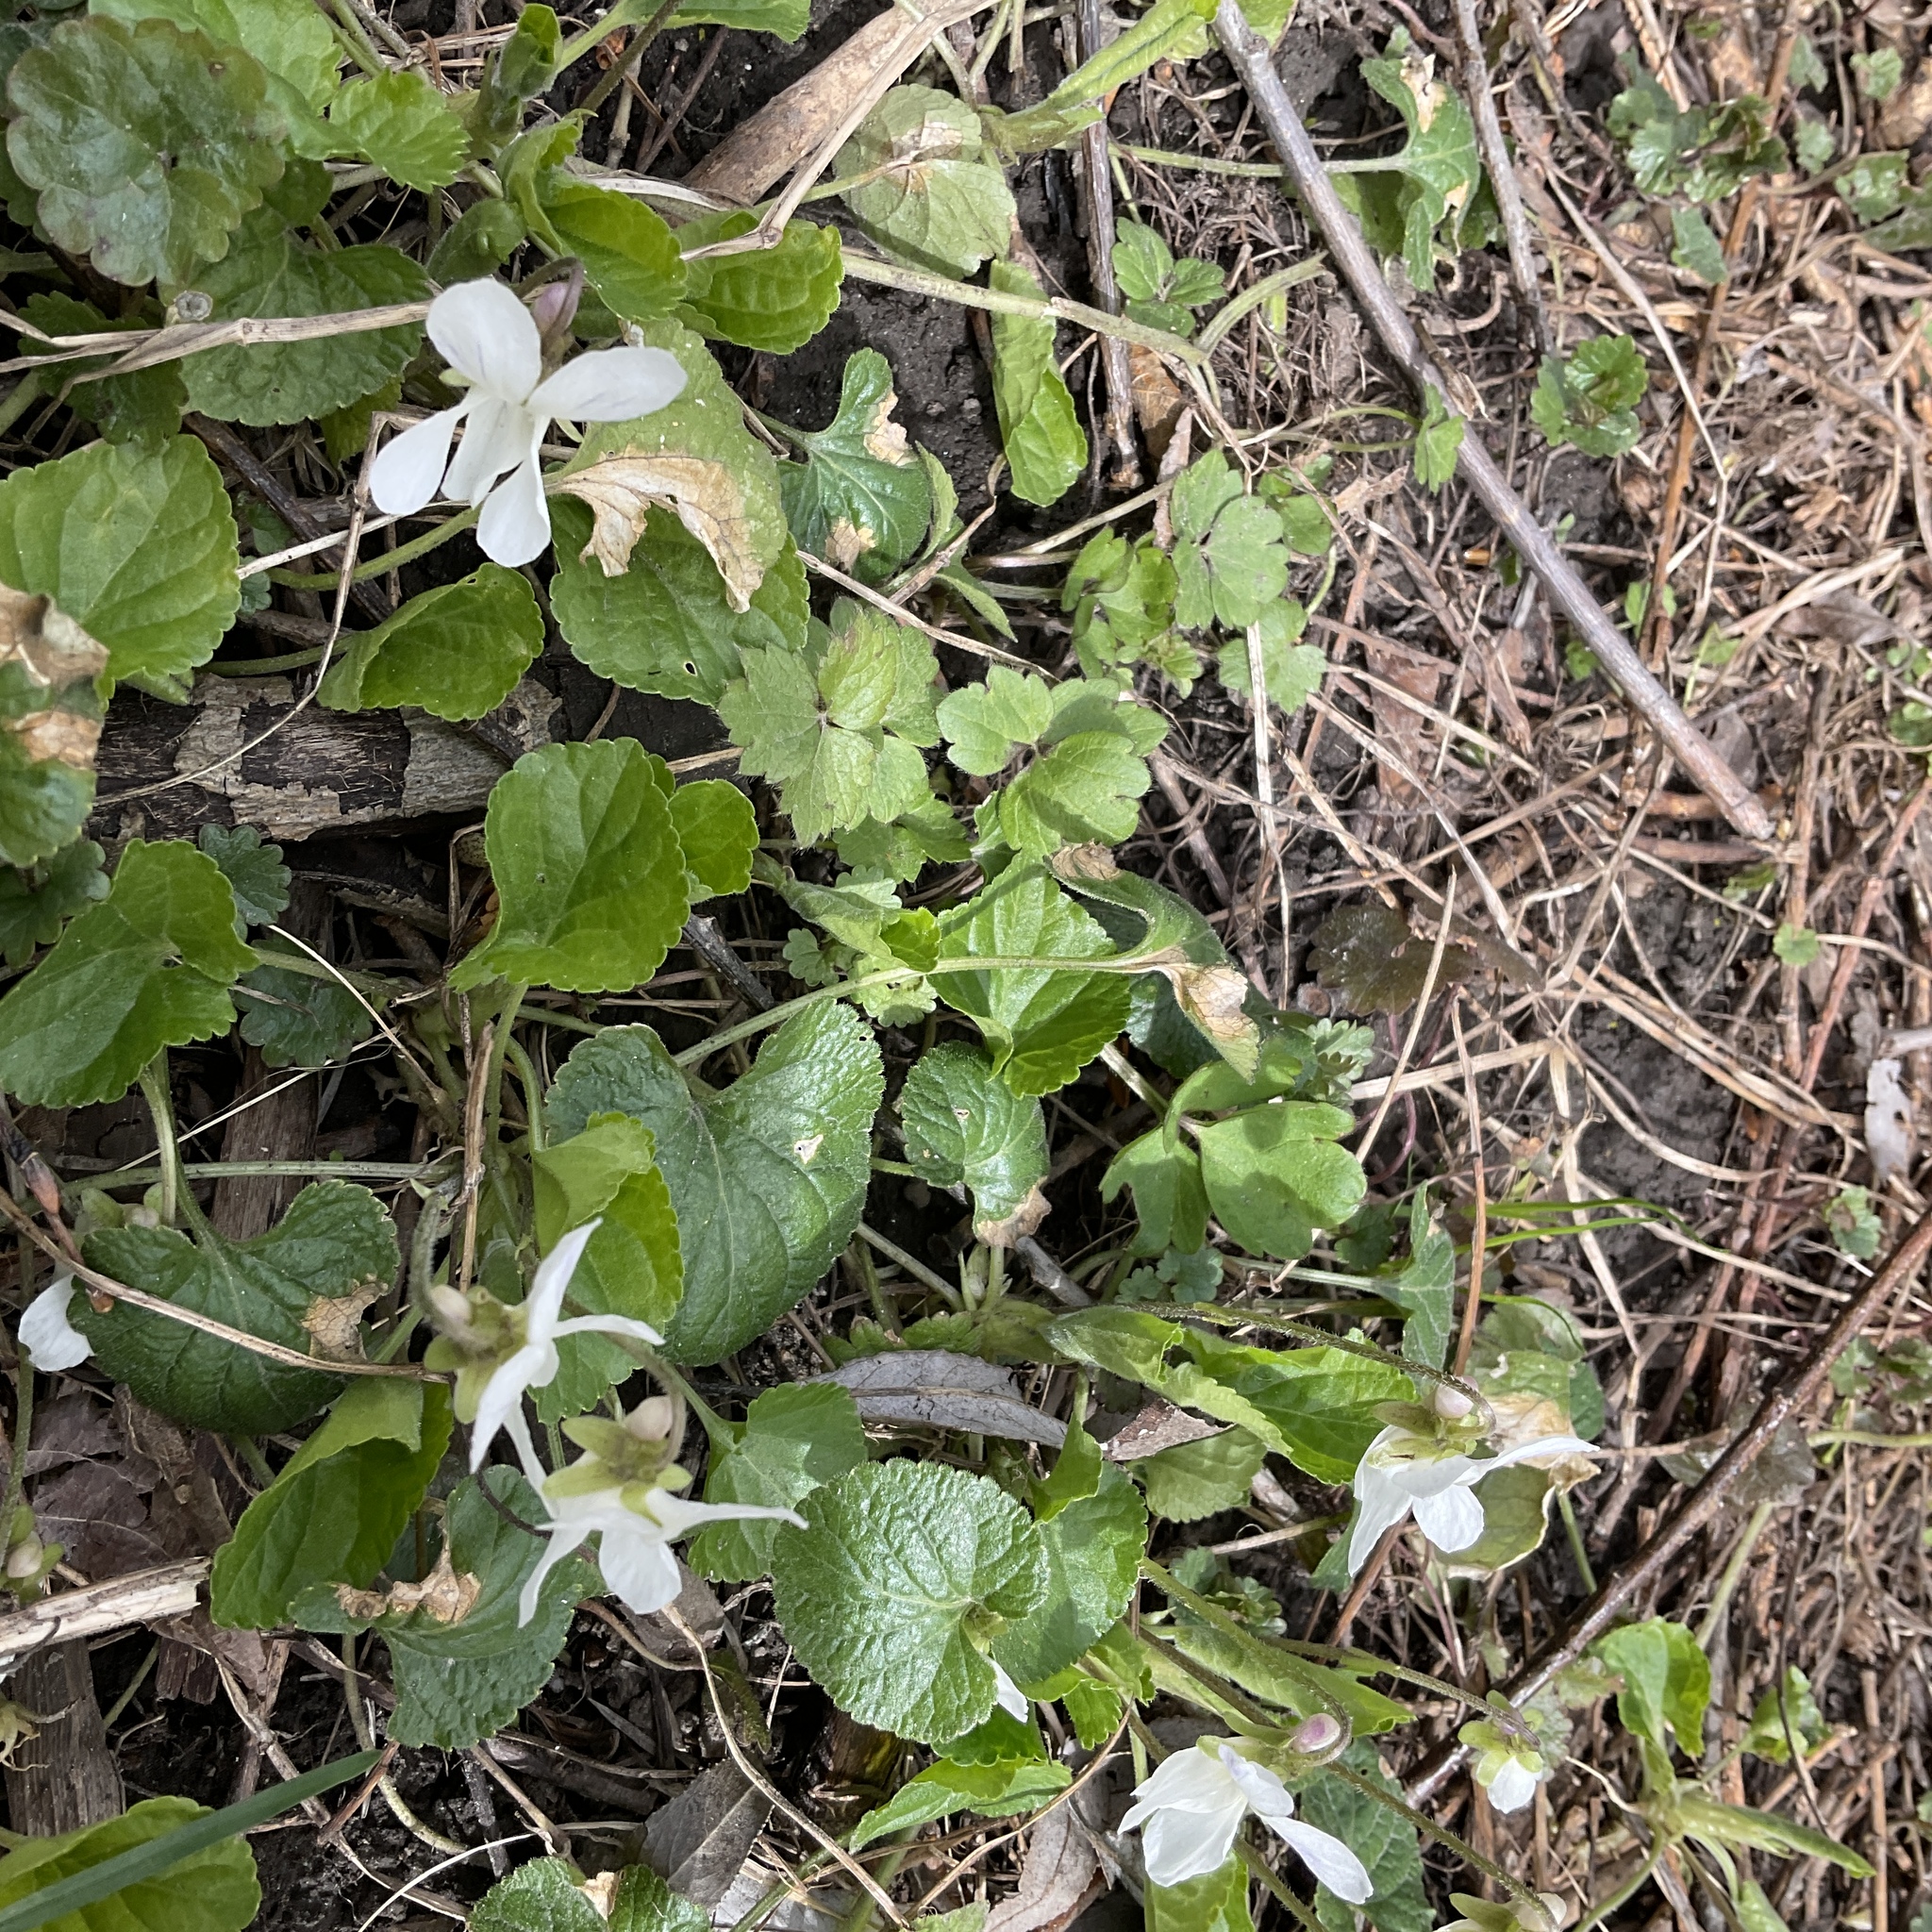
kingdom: Plantae
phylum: Tracheophyta
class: Magnoliopsida
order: Malpighiales
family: Violaceae
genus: Viola
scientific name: Viola odorata
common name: Sweet violet
